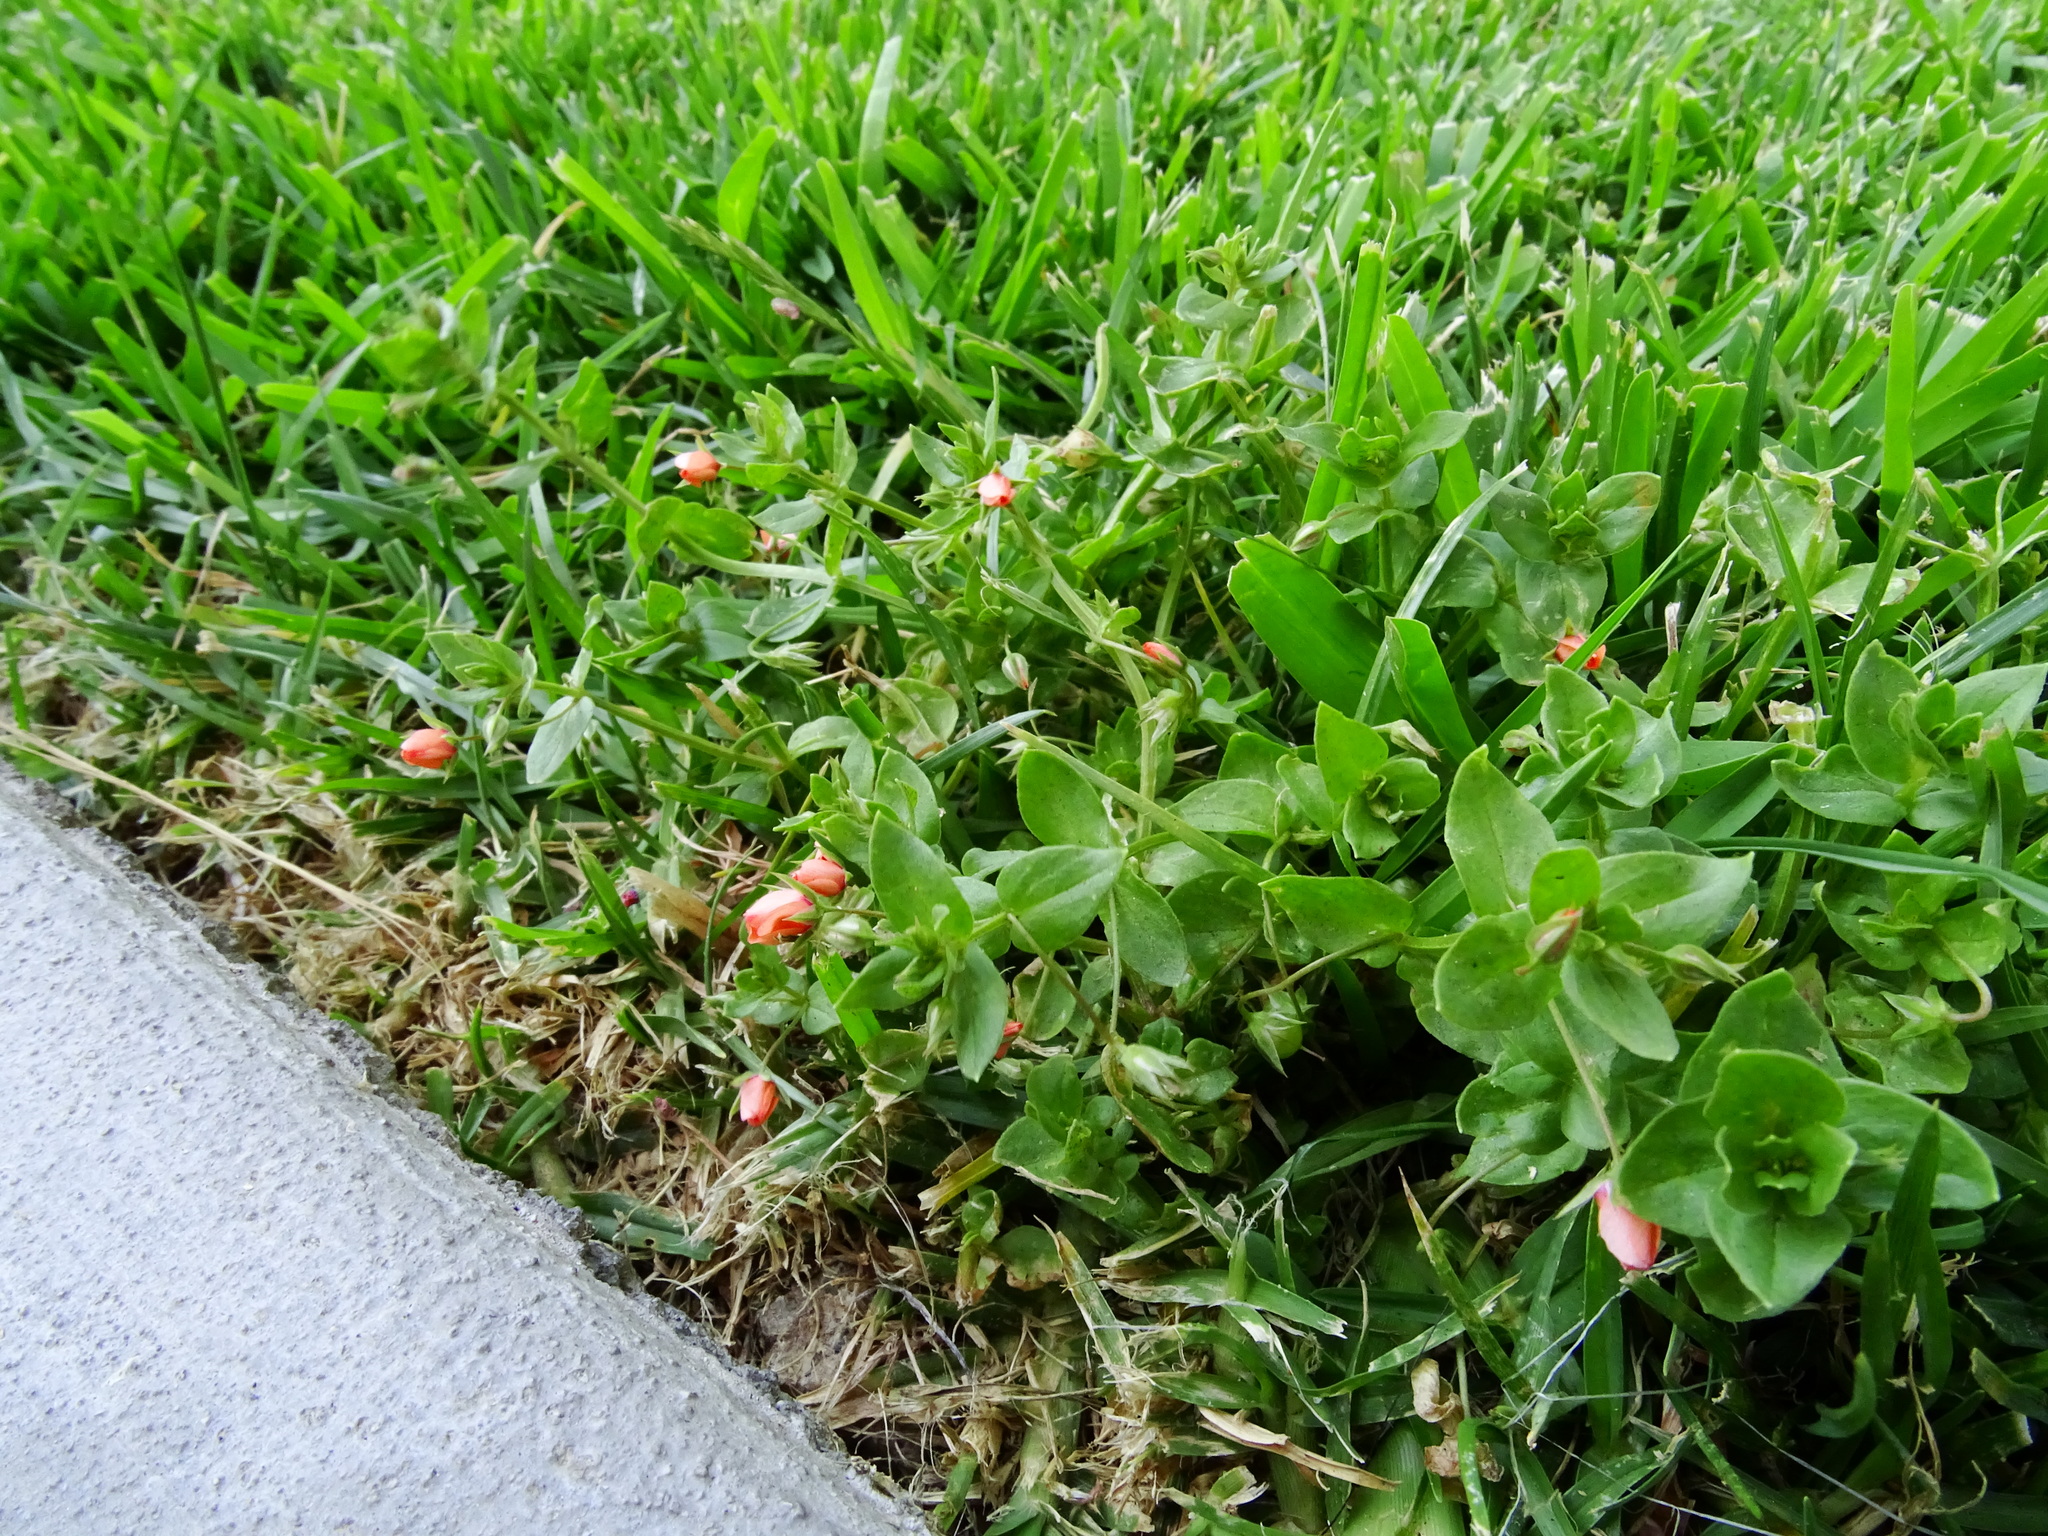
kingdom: Plantae
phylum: Tracheophyta
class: Magnoliopsida
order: Ericales
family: Primulaceae
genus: Lysimachia
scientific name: Lysimachia arvensis
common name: Scarlet pimpernel
